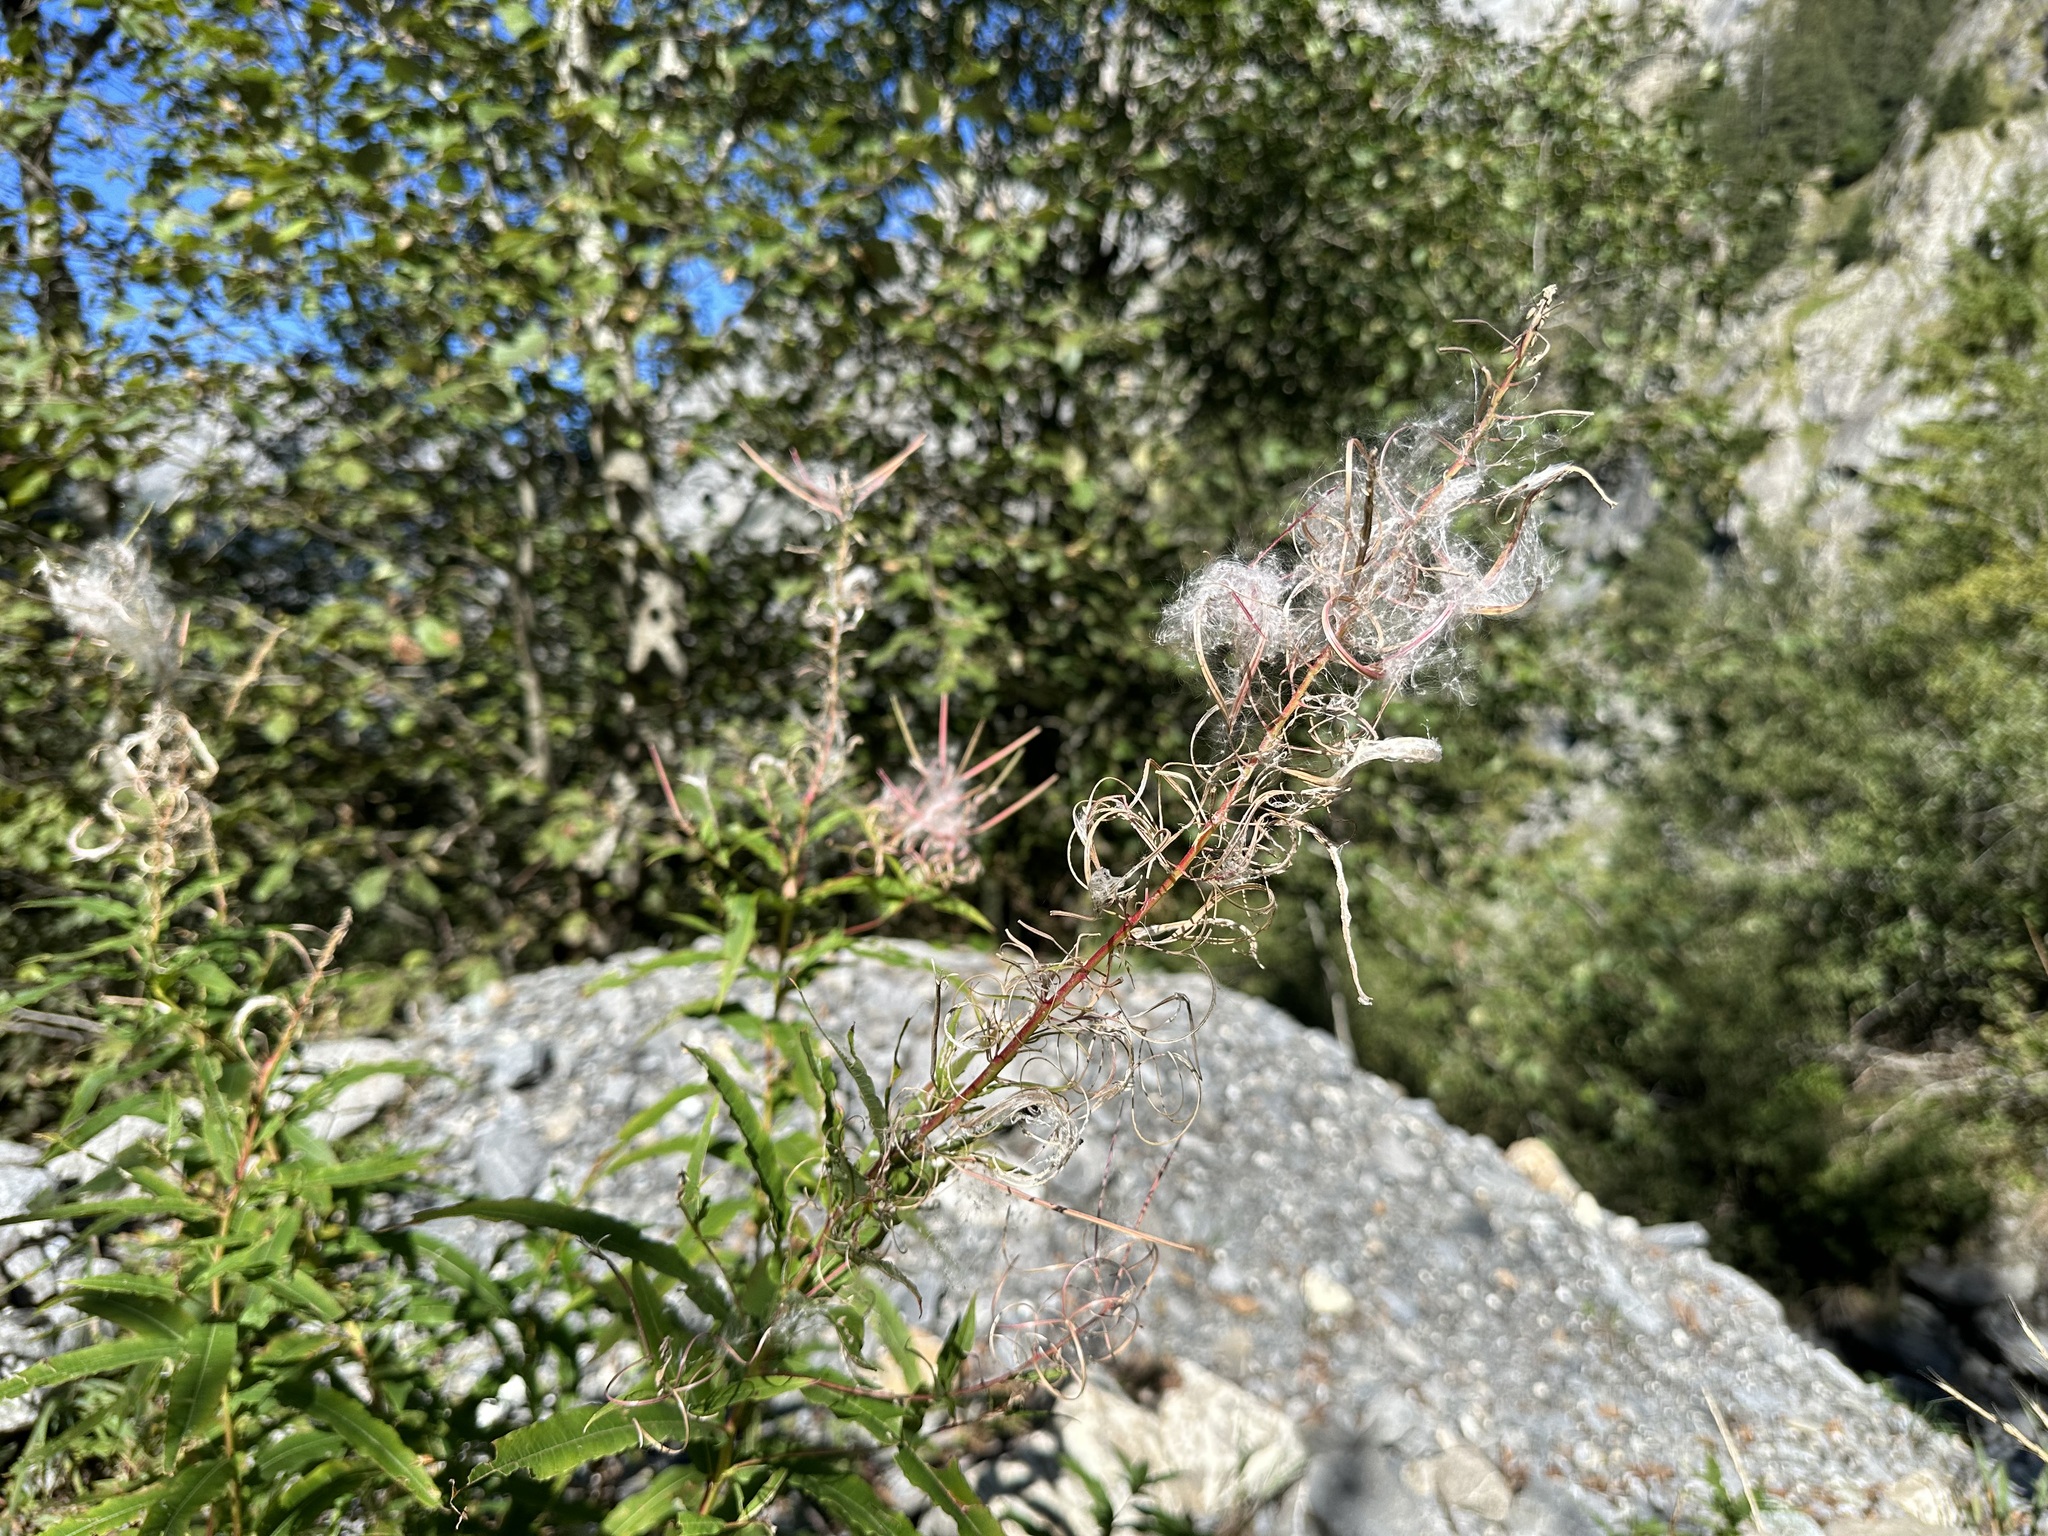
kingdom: Plantae
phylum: Tracheophyta
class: Magnoliopsida
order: Myrtales
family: Onagraceae
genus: Chamaenerion
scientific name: Chamaenerion angustifolium
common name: Fireweed
